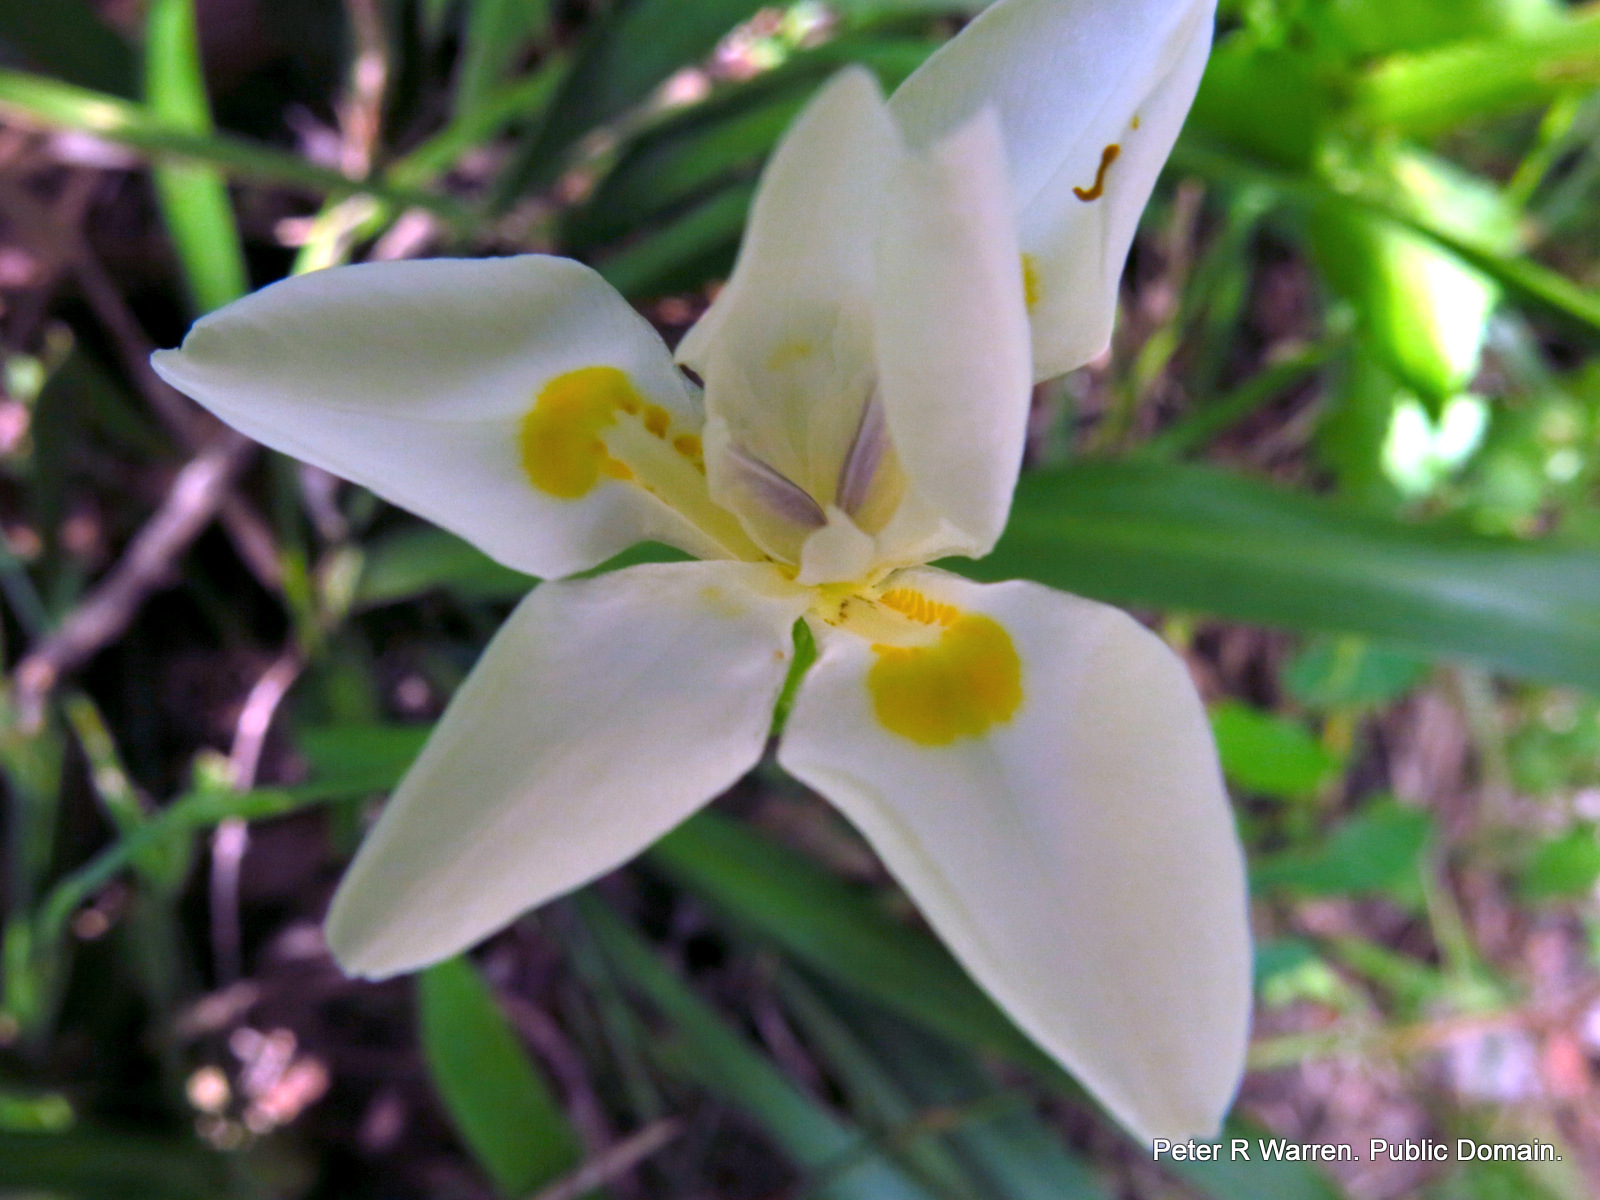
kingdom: Plantae
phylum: Tracheophyta
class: Liliopsida
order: Asparagales
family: Iridaceae
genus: Dietes
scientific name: Dietes iridioides
